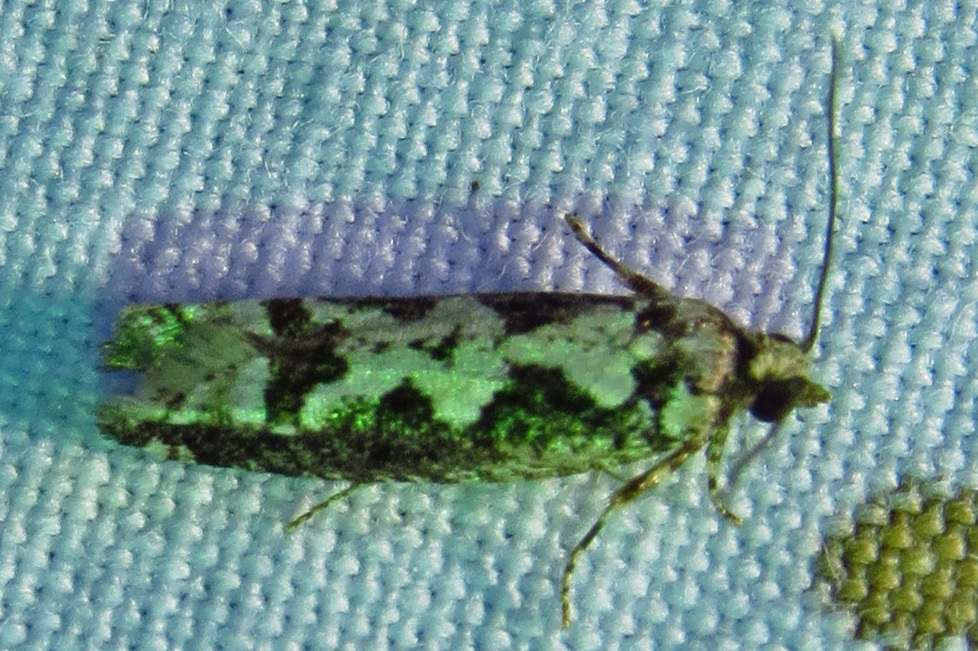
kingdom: Animalia
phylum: Arthropoda
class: Insecta
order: Lepidoptera
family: Tortricidae
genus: Chimoptesis
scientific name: Chimoptesis pennsylvaniana
